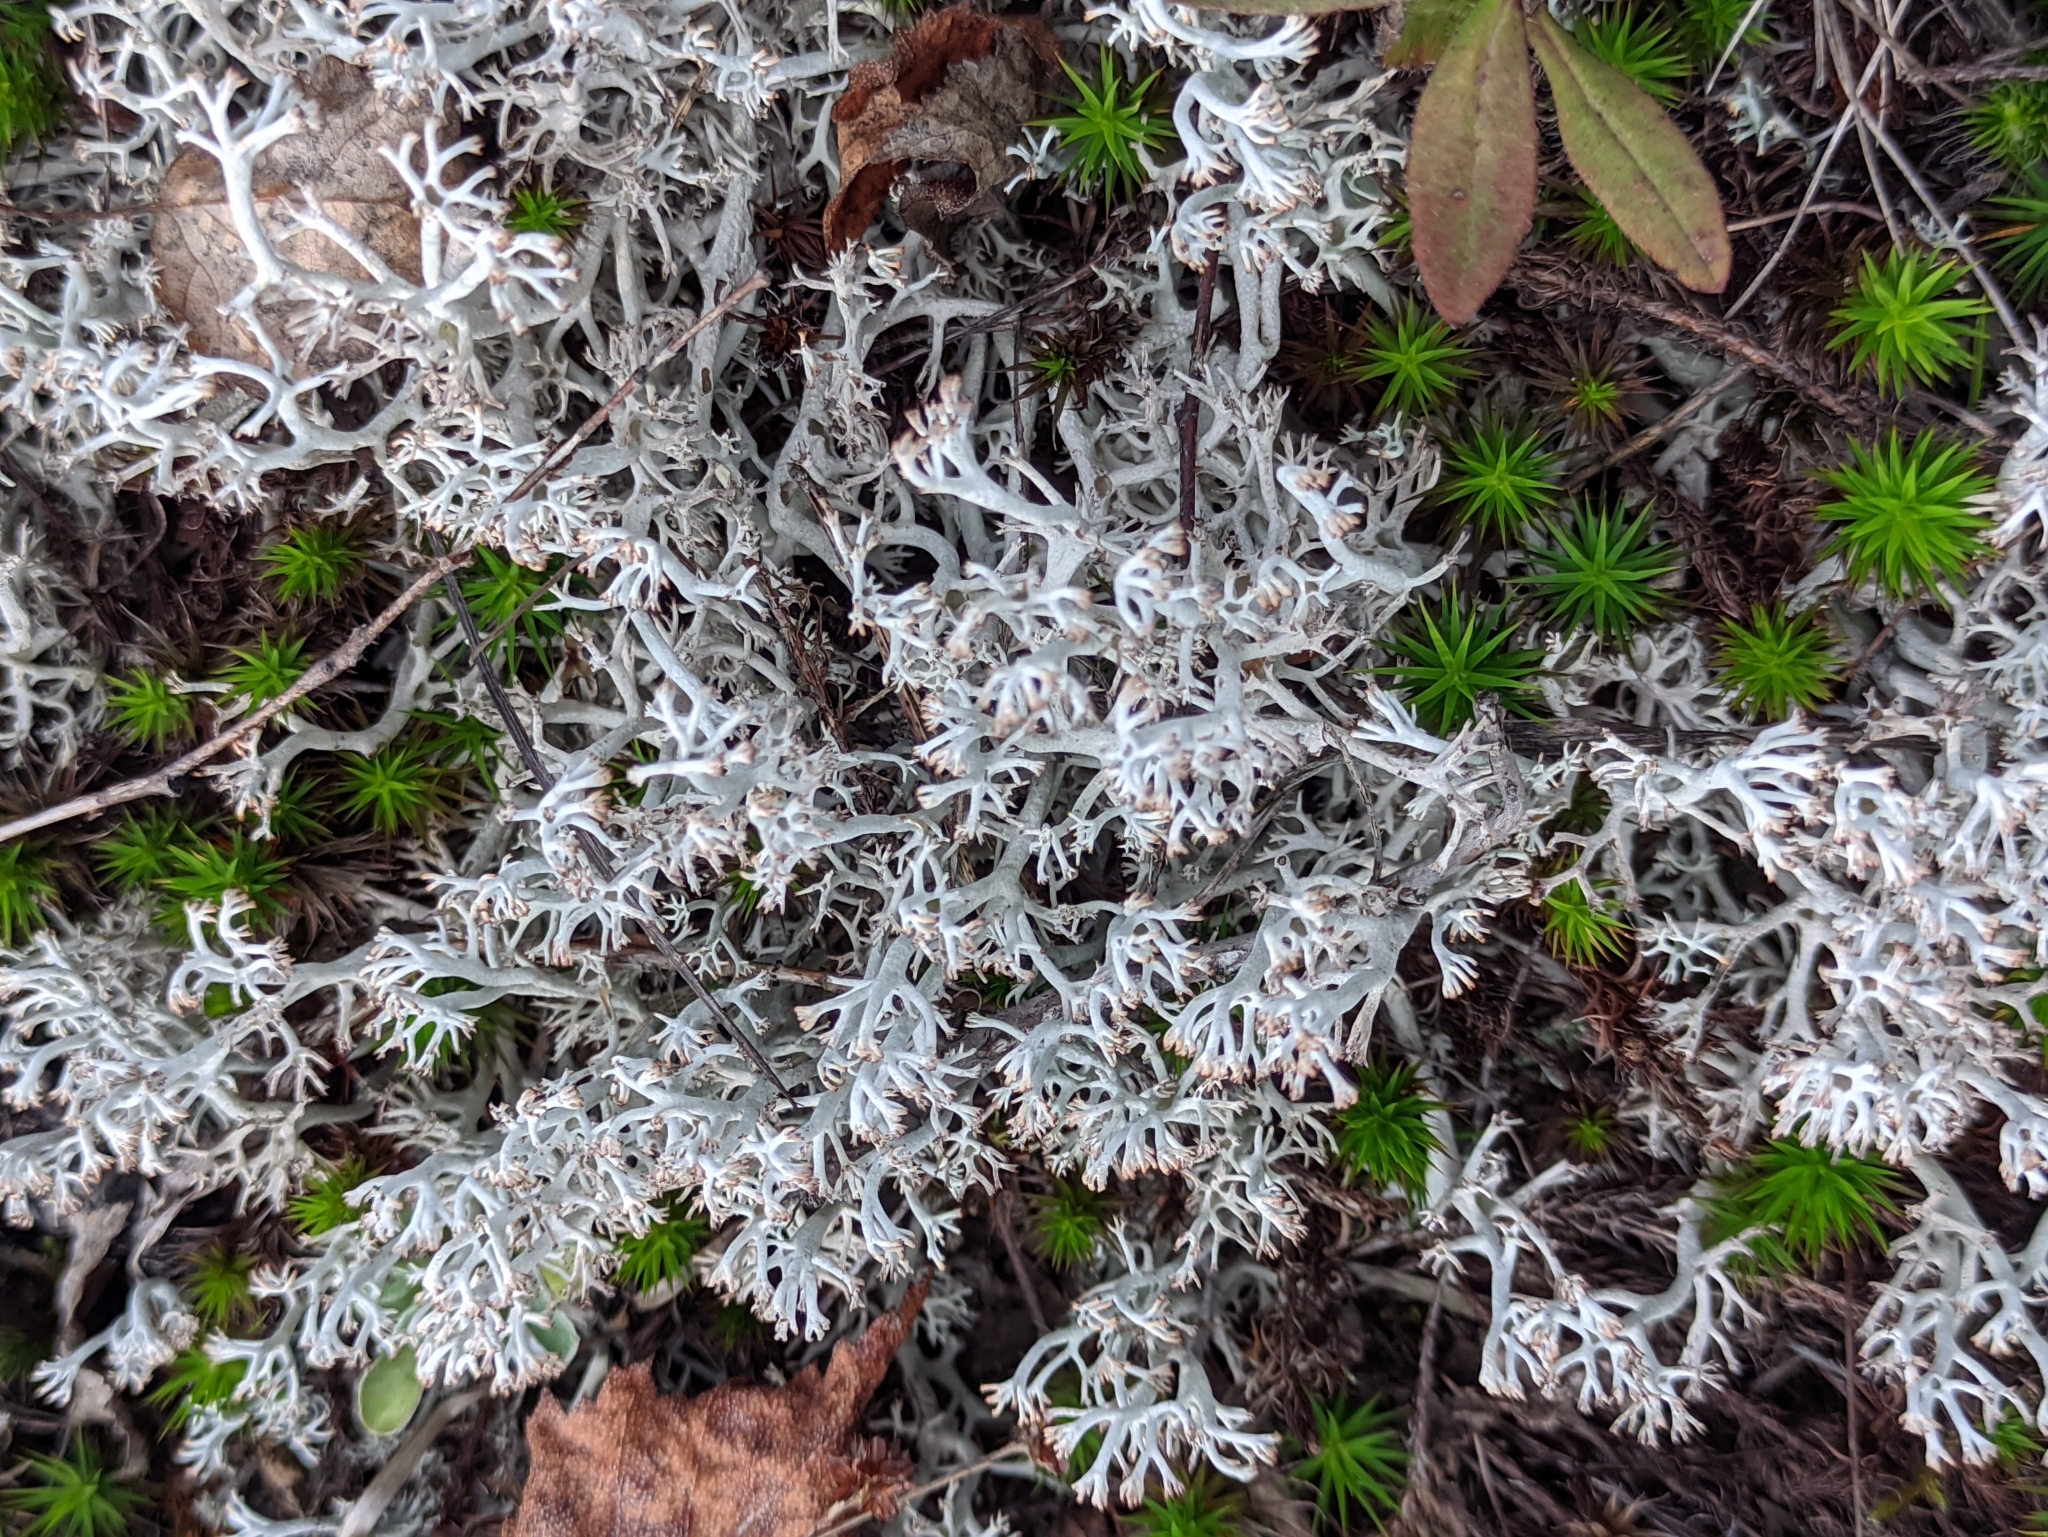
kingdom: Fungi
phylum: Ascomycota
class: Lecanoromycetes
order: Lecanorales
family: Cladoniaceae
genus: Cladonia
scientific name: Cladonia rangiferina
